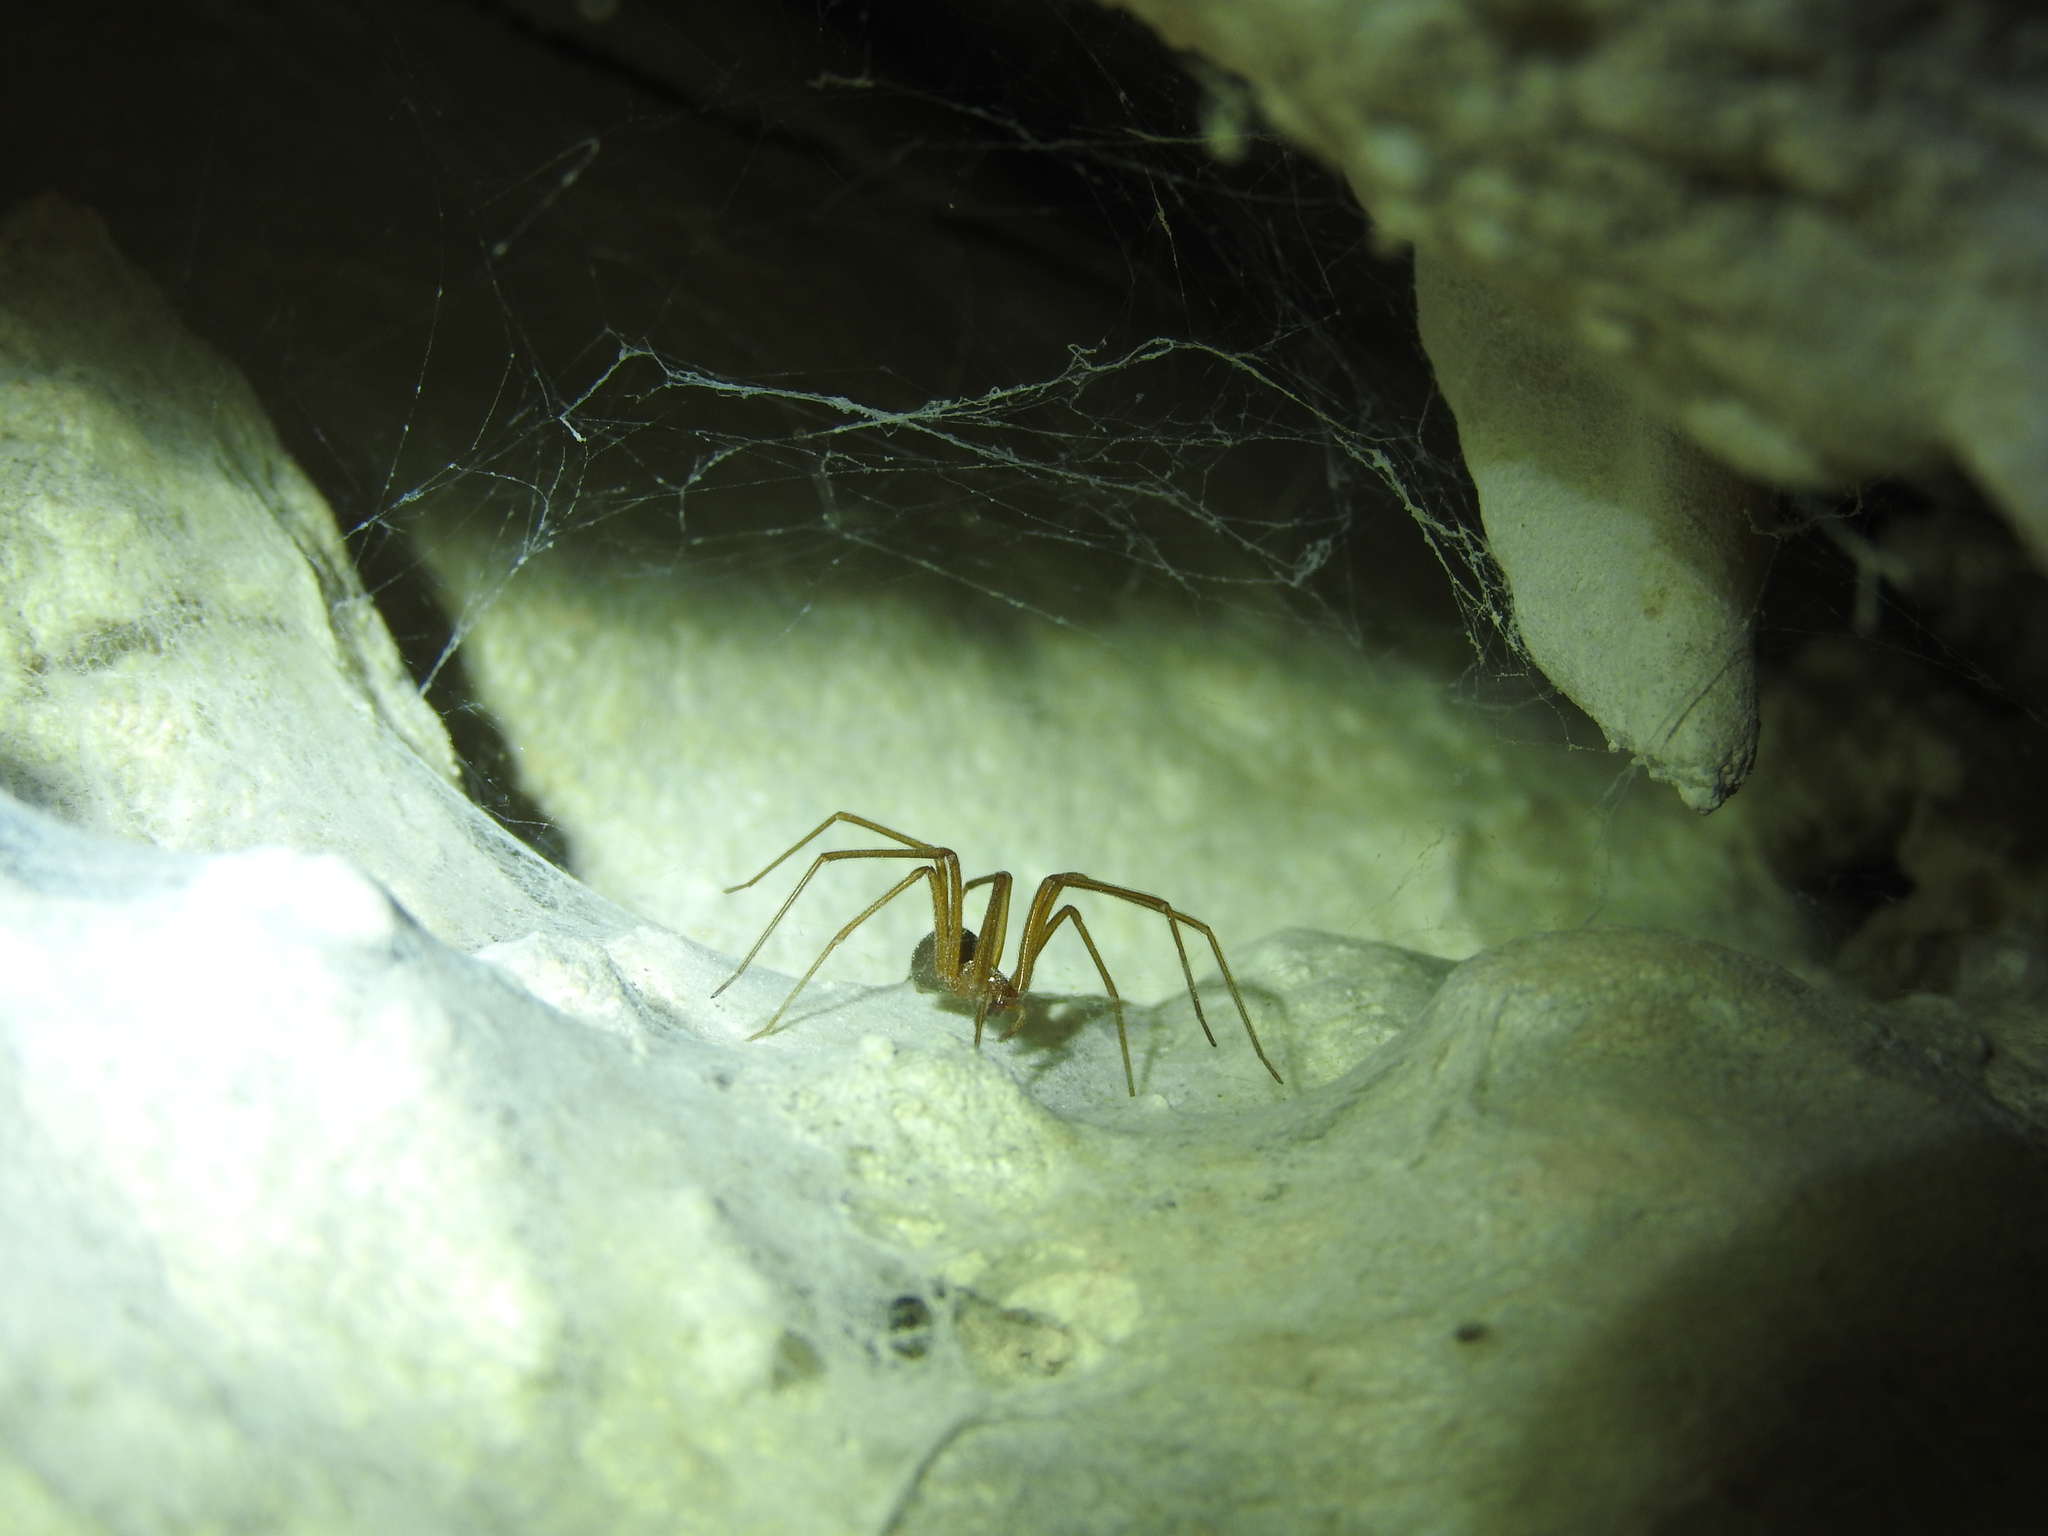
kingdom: Animalia
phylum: Arthropoda
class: Arachnida
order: Araneae
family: Sicariidae
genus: Loxosceles
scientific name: Loxosceles yucatana
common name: Violin spiders
